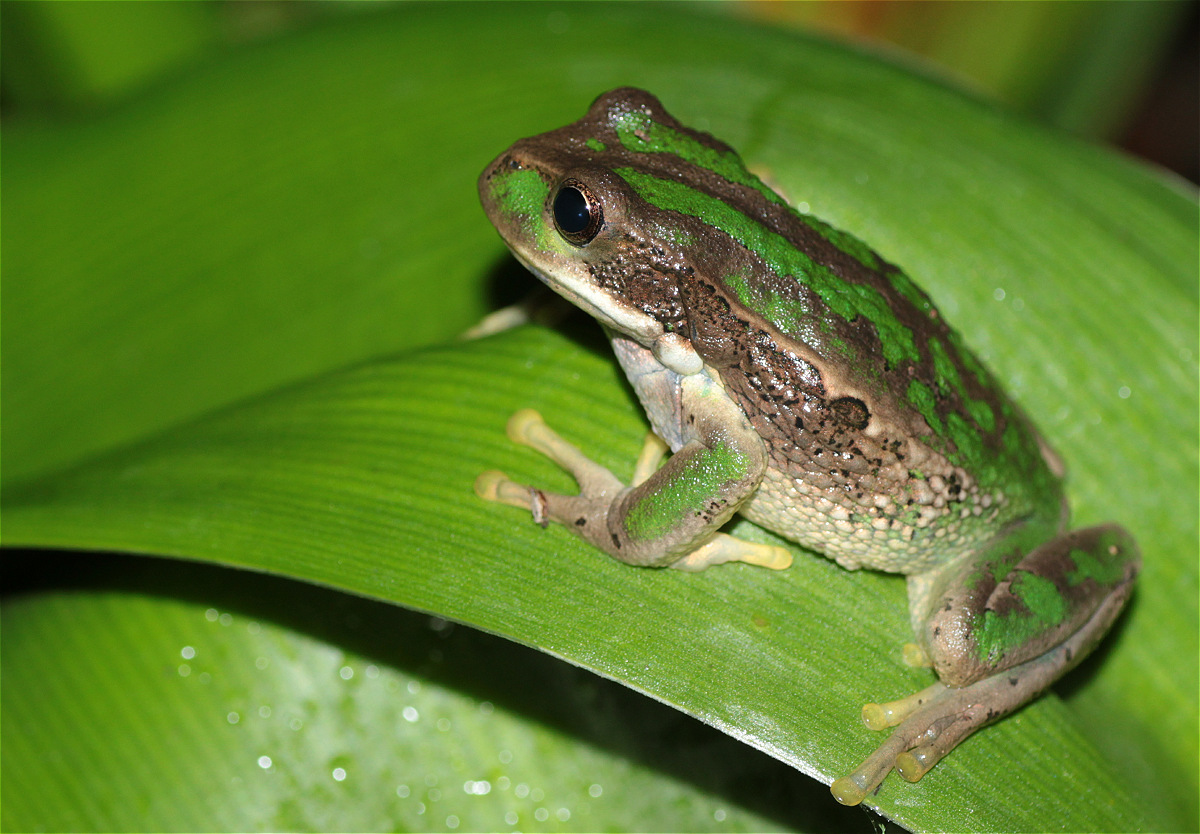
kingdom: Animalia
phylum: Chordata
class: Amphibia
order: Anura
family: Hemiphractidae
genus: Gastrotheca
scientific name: Gastrotheca cuencana
